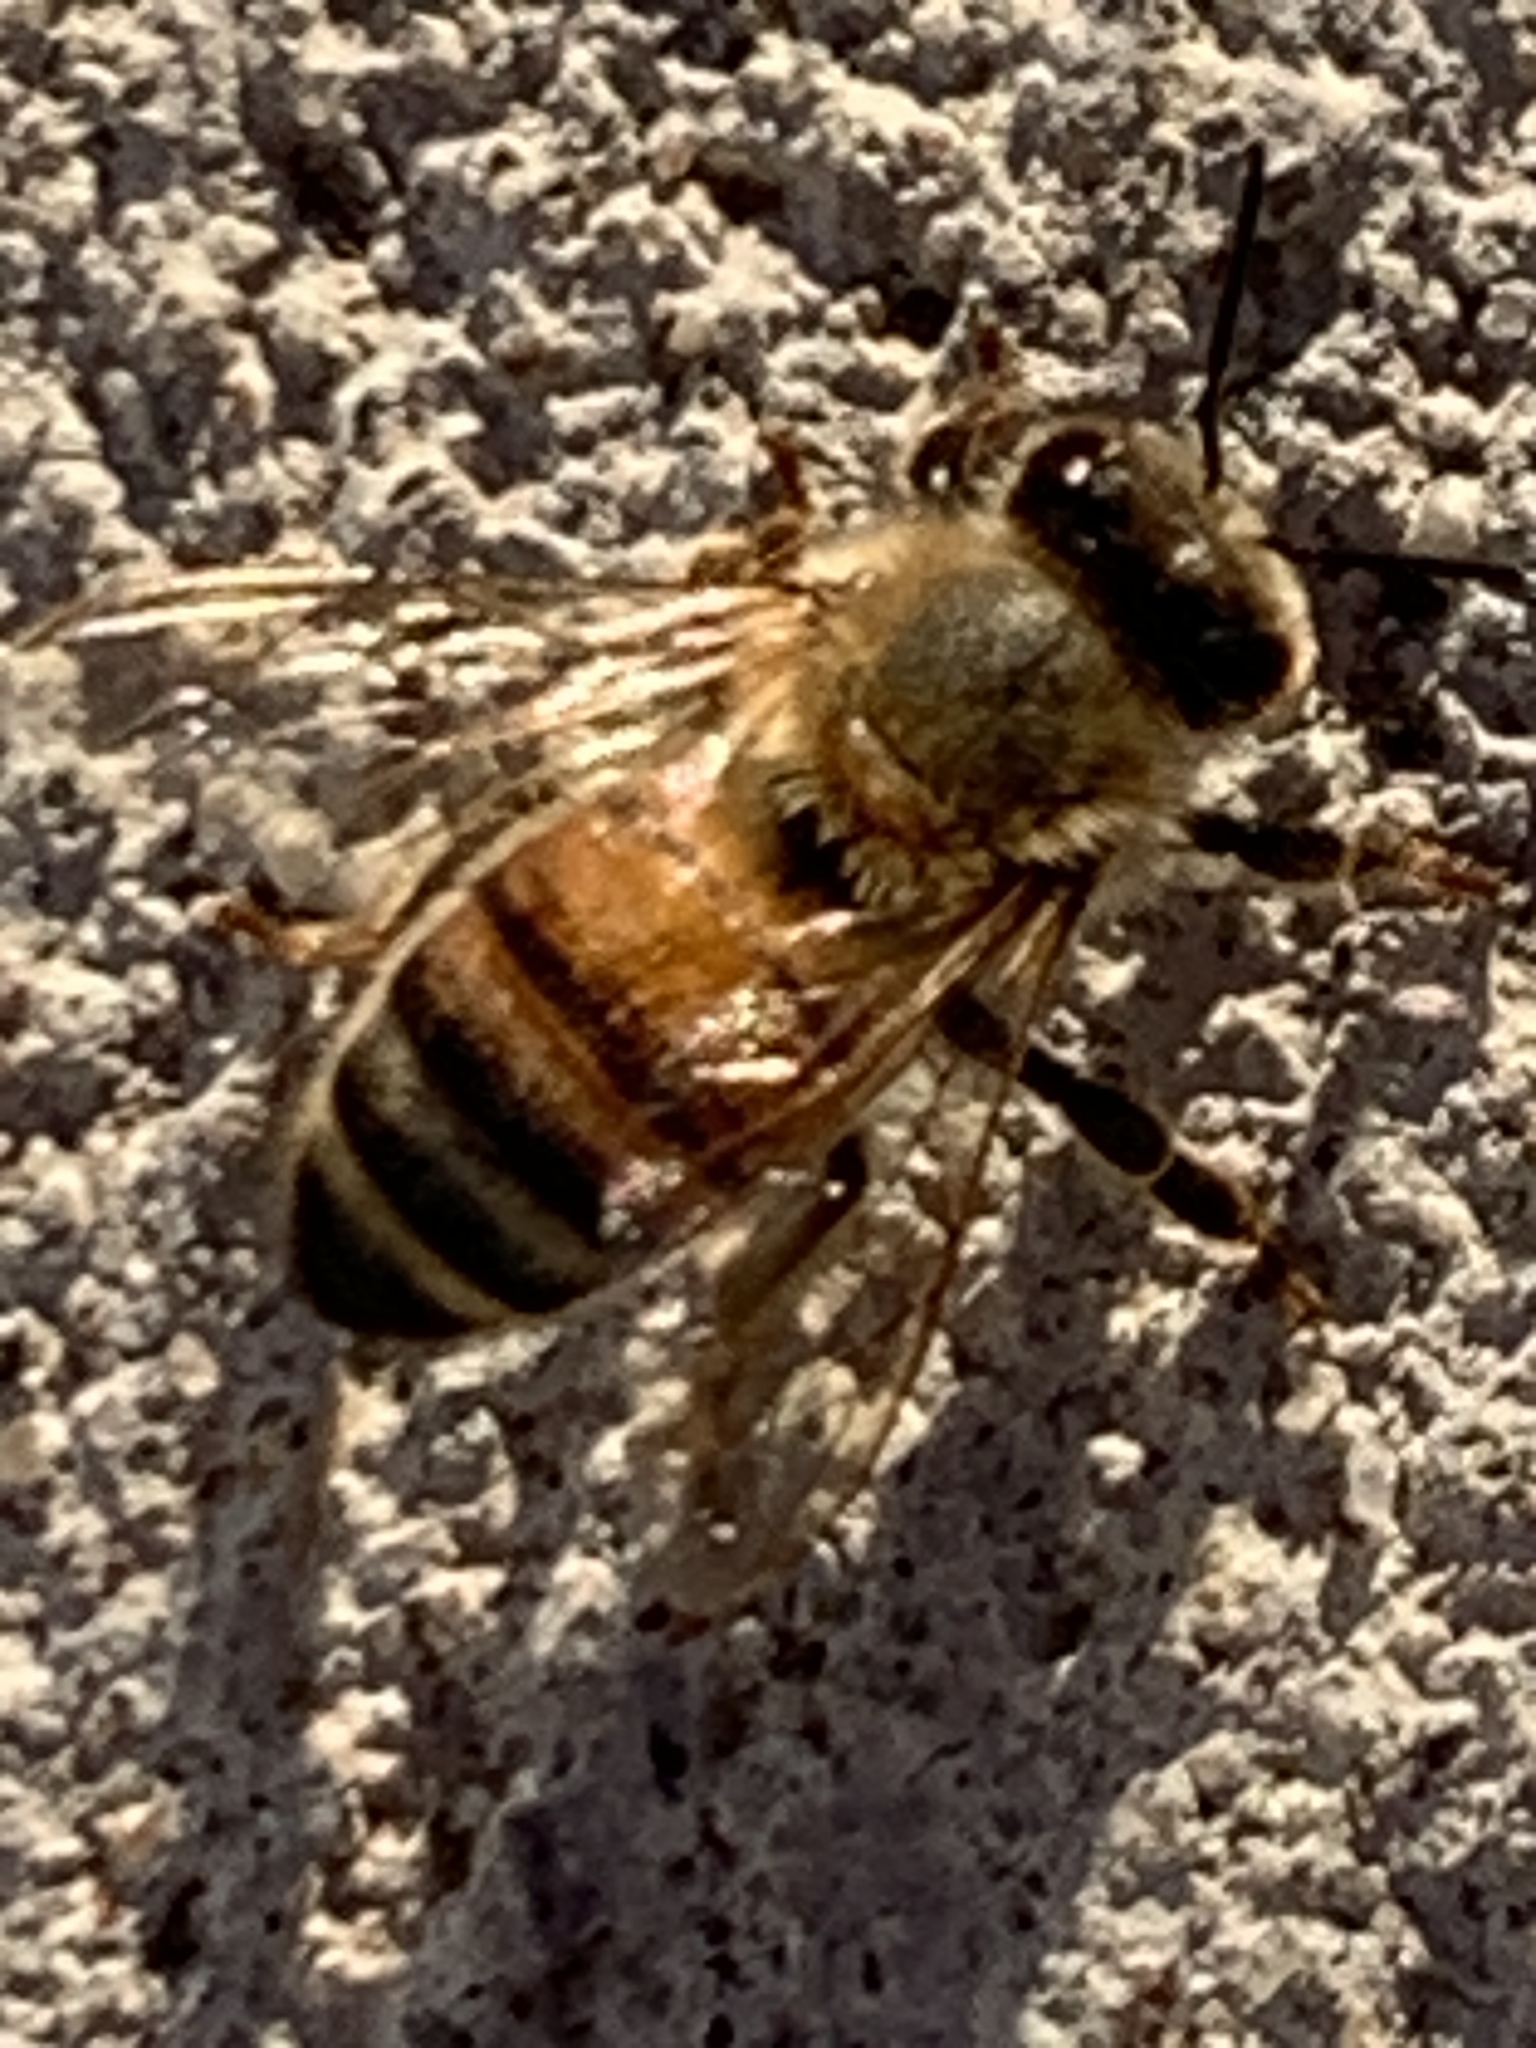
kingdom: Animalia
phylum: Arthropoda
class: Insecta
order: Hymenoptera
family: Apidae
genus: Apis
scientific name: Apis mellifera
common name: Honey bee
